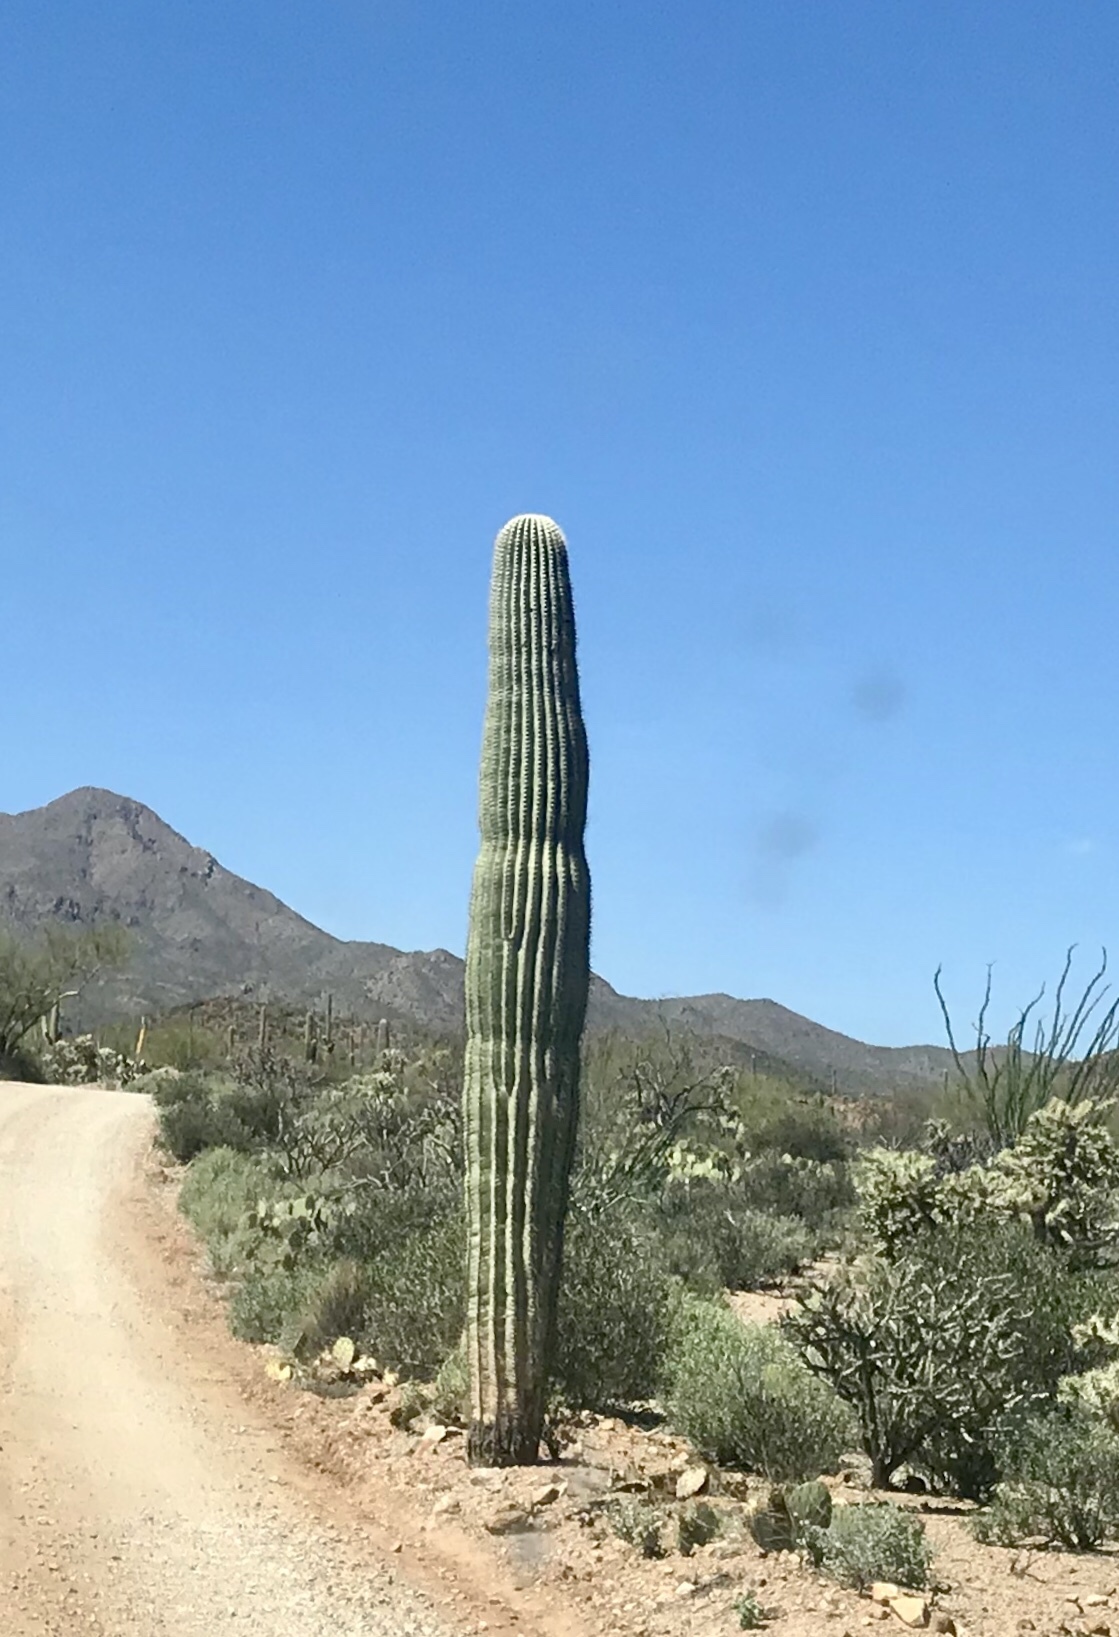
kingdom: Plantae
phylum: Tracheophyta
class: Magnoliopsida
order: Caryophyllales
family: Cactaceae
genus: Carnegiea
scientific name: Carnegiea gigantea
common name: Saguaro
